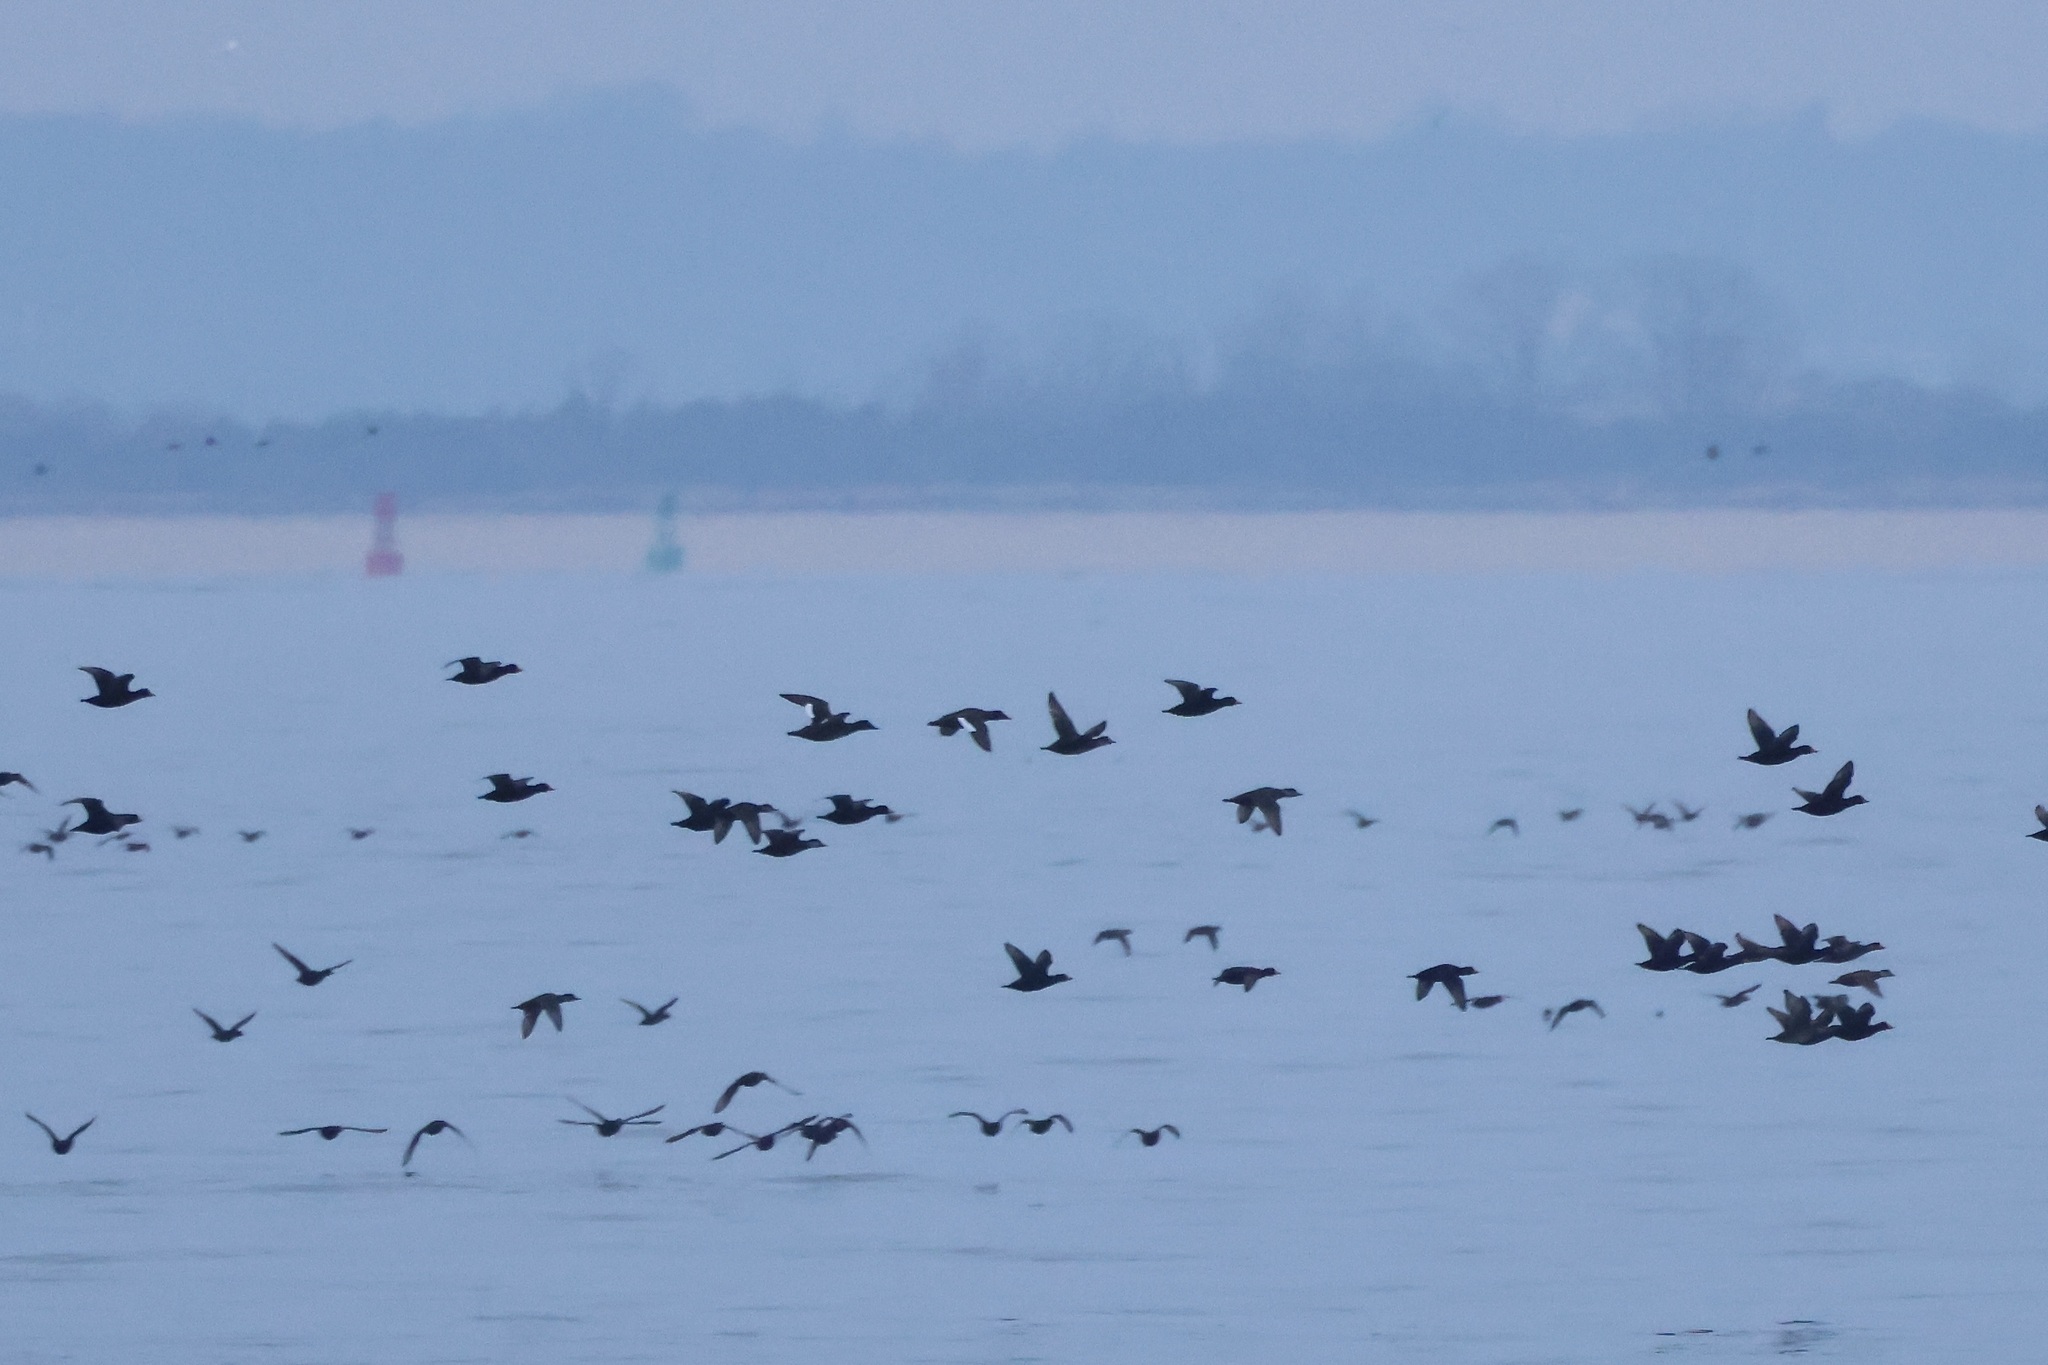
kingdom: Animalia
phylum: Chordata
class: Aves
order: Anseriformes
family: Anatidae
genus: Melanitta
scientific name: Melanitta deglandi
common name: White-winged scoter
